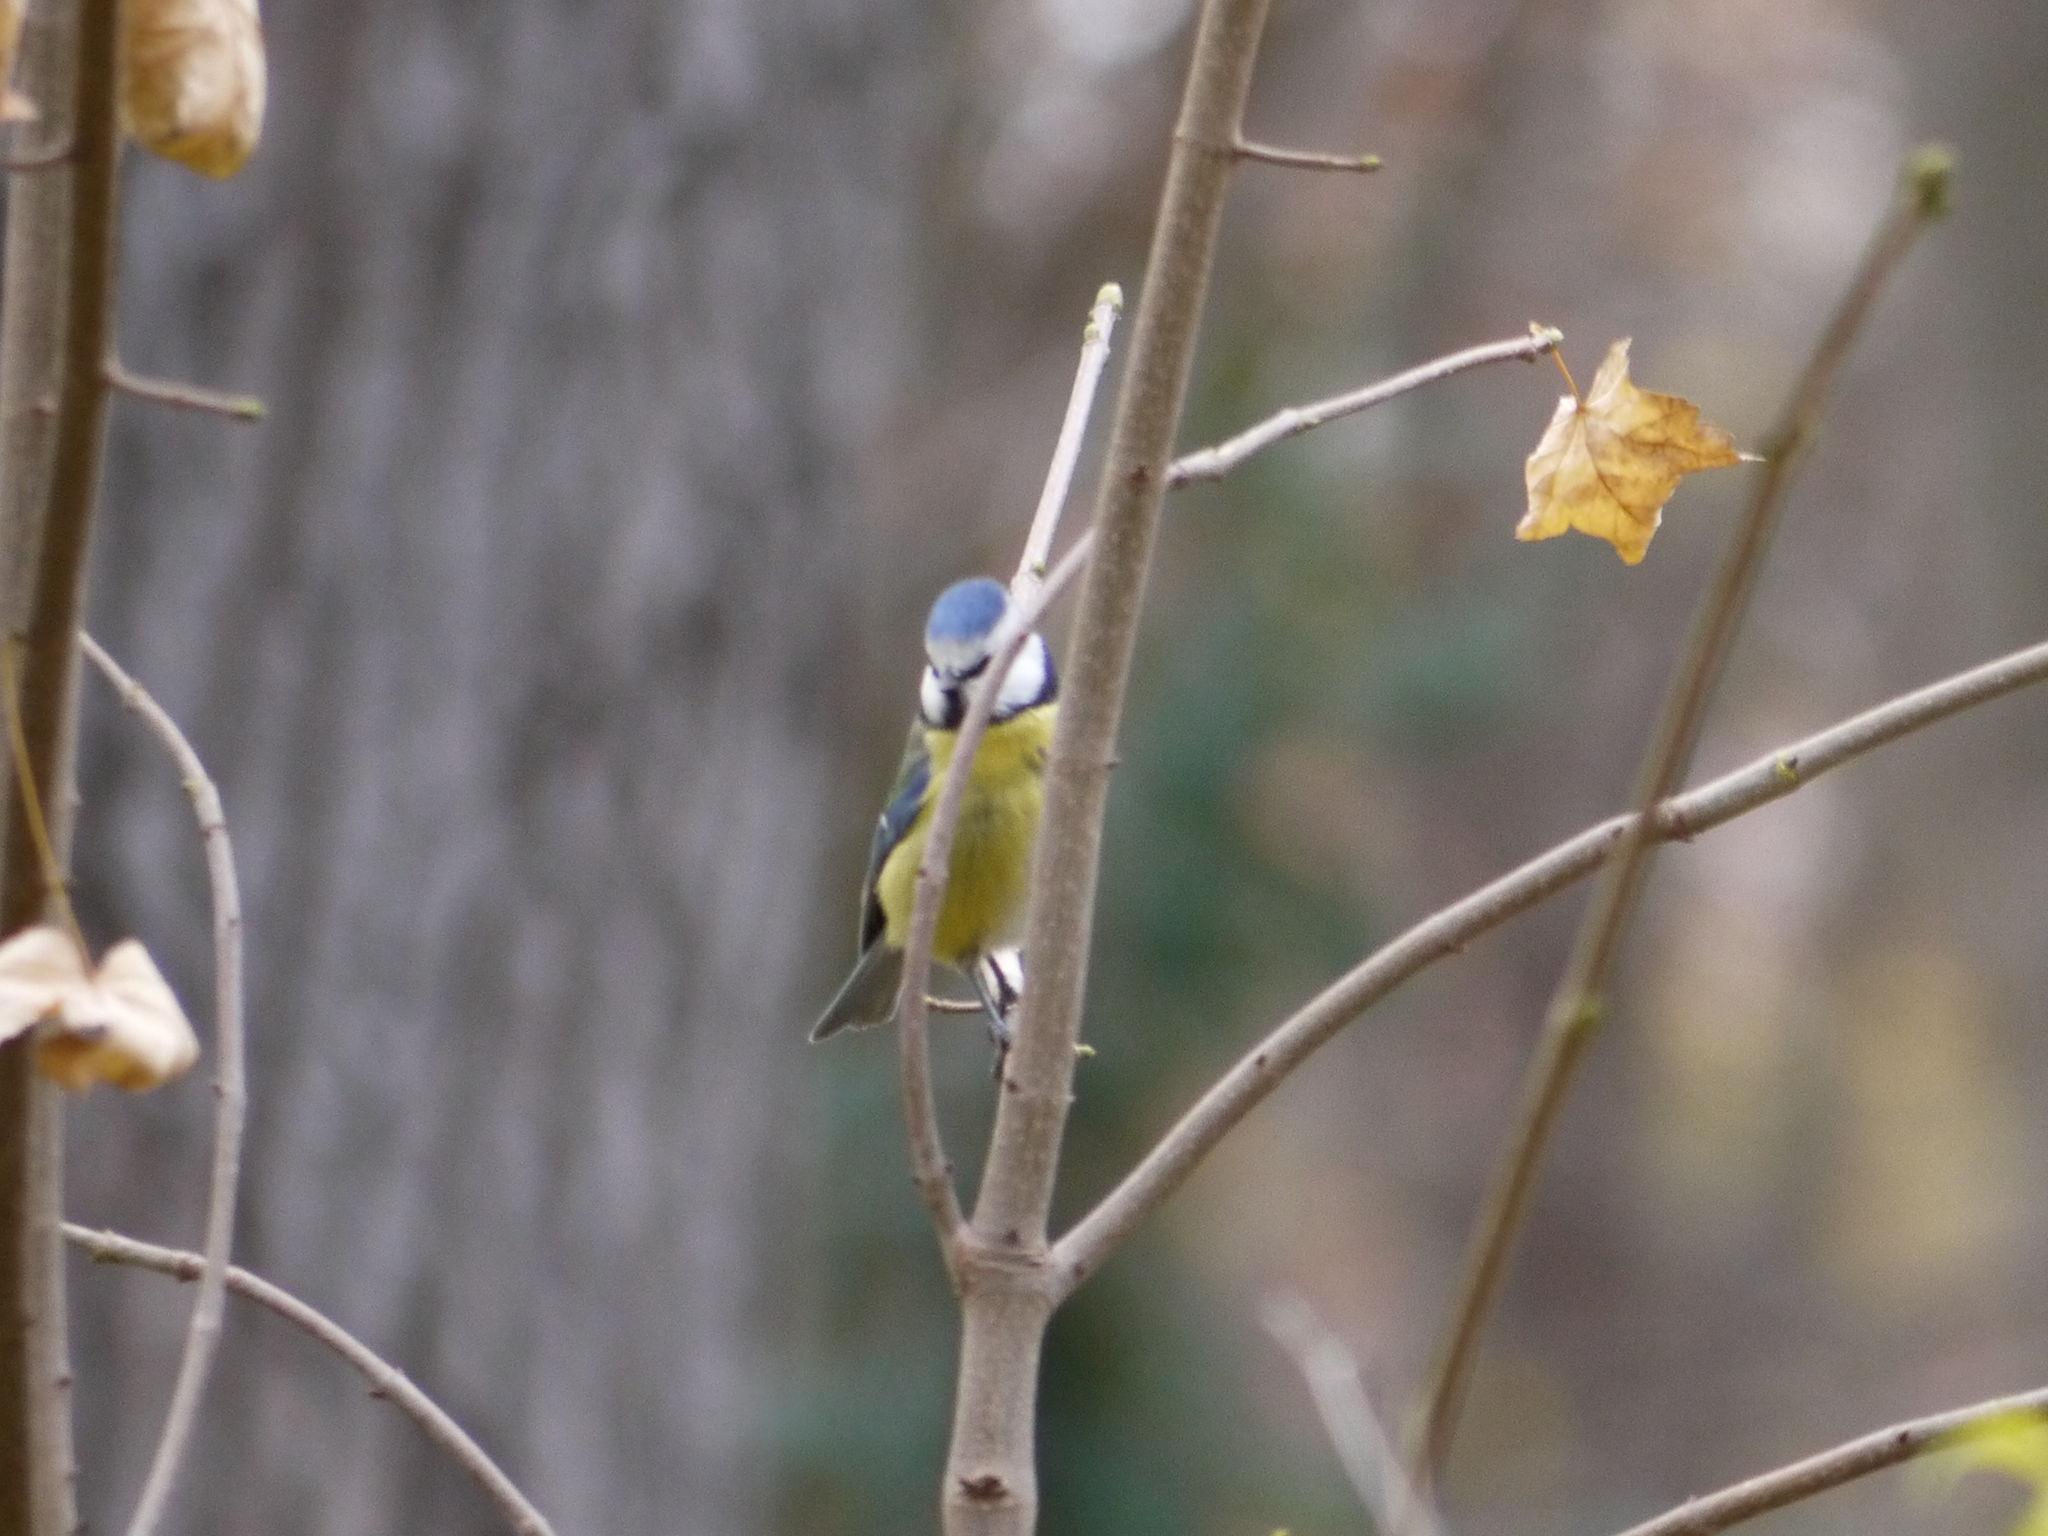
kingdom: Animalia
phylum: Chordata
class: Aves
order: Passeriformes
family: Paridae
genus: Cyanistes
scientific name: Cyanistes caeruleus
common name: Eurasian blue tit
